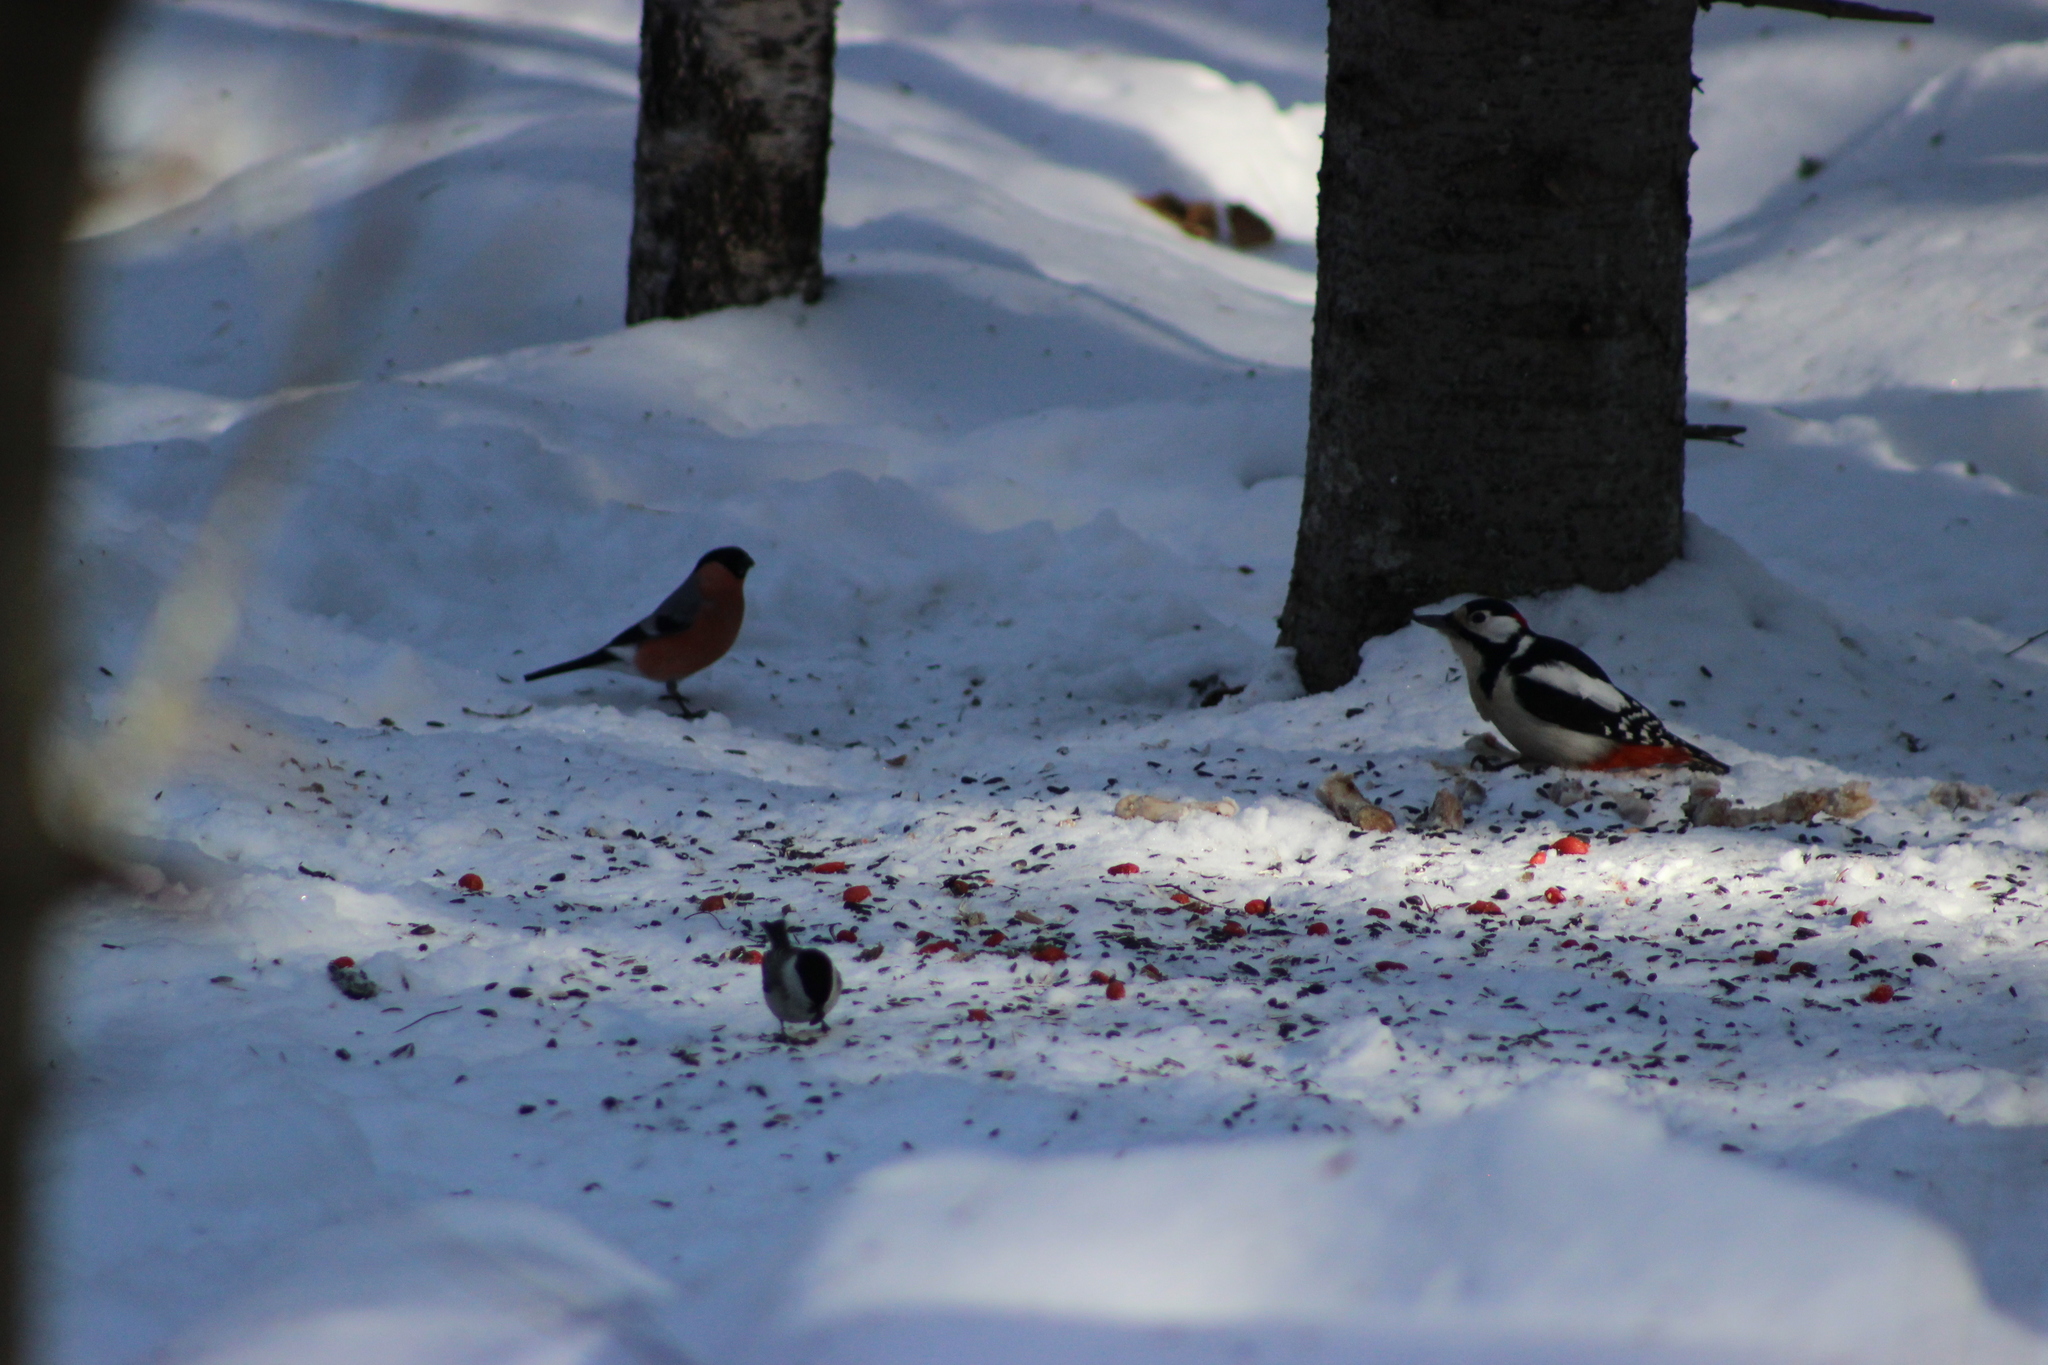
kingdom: Animalia
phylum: Chordata
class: Aves
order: Passeriformes
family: Fringillidae
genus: Pyrrhula
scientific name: Pyrrhula pyrrhula
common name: Eurasian bullfinch
